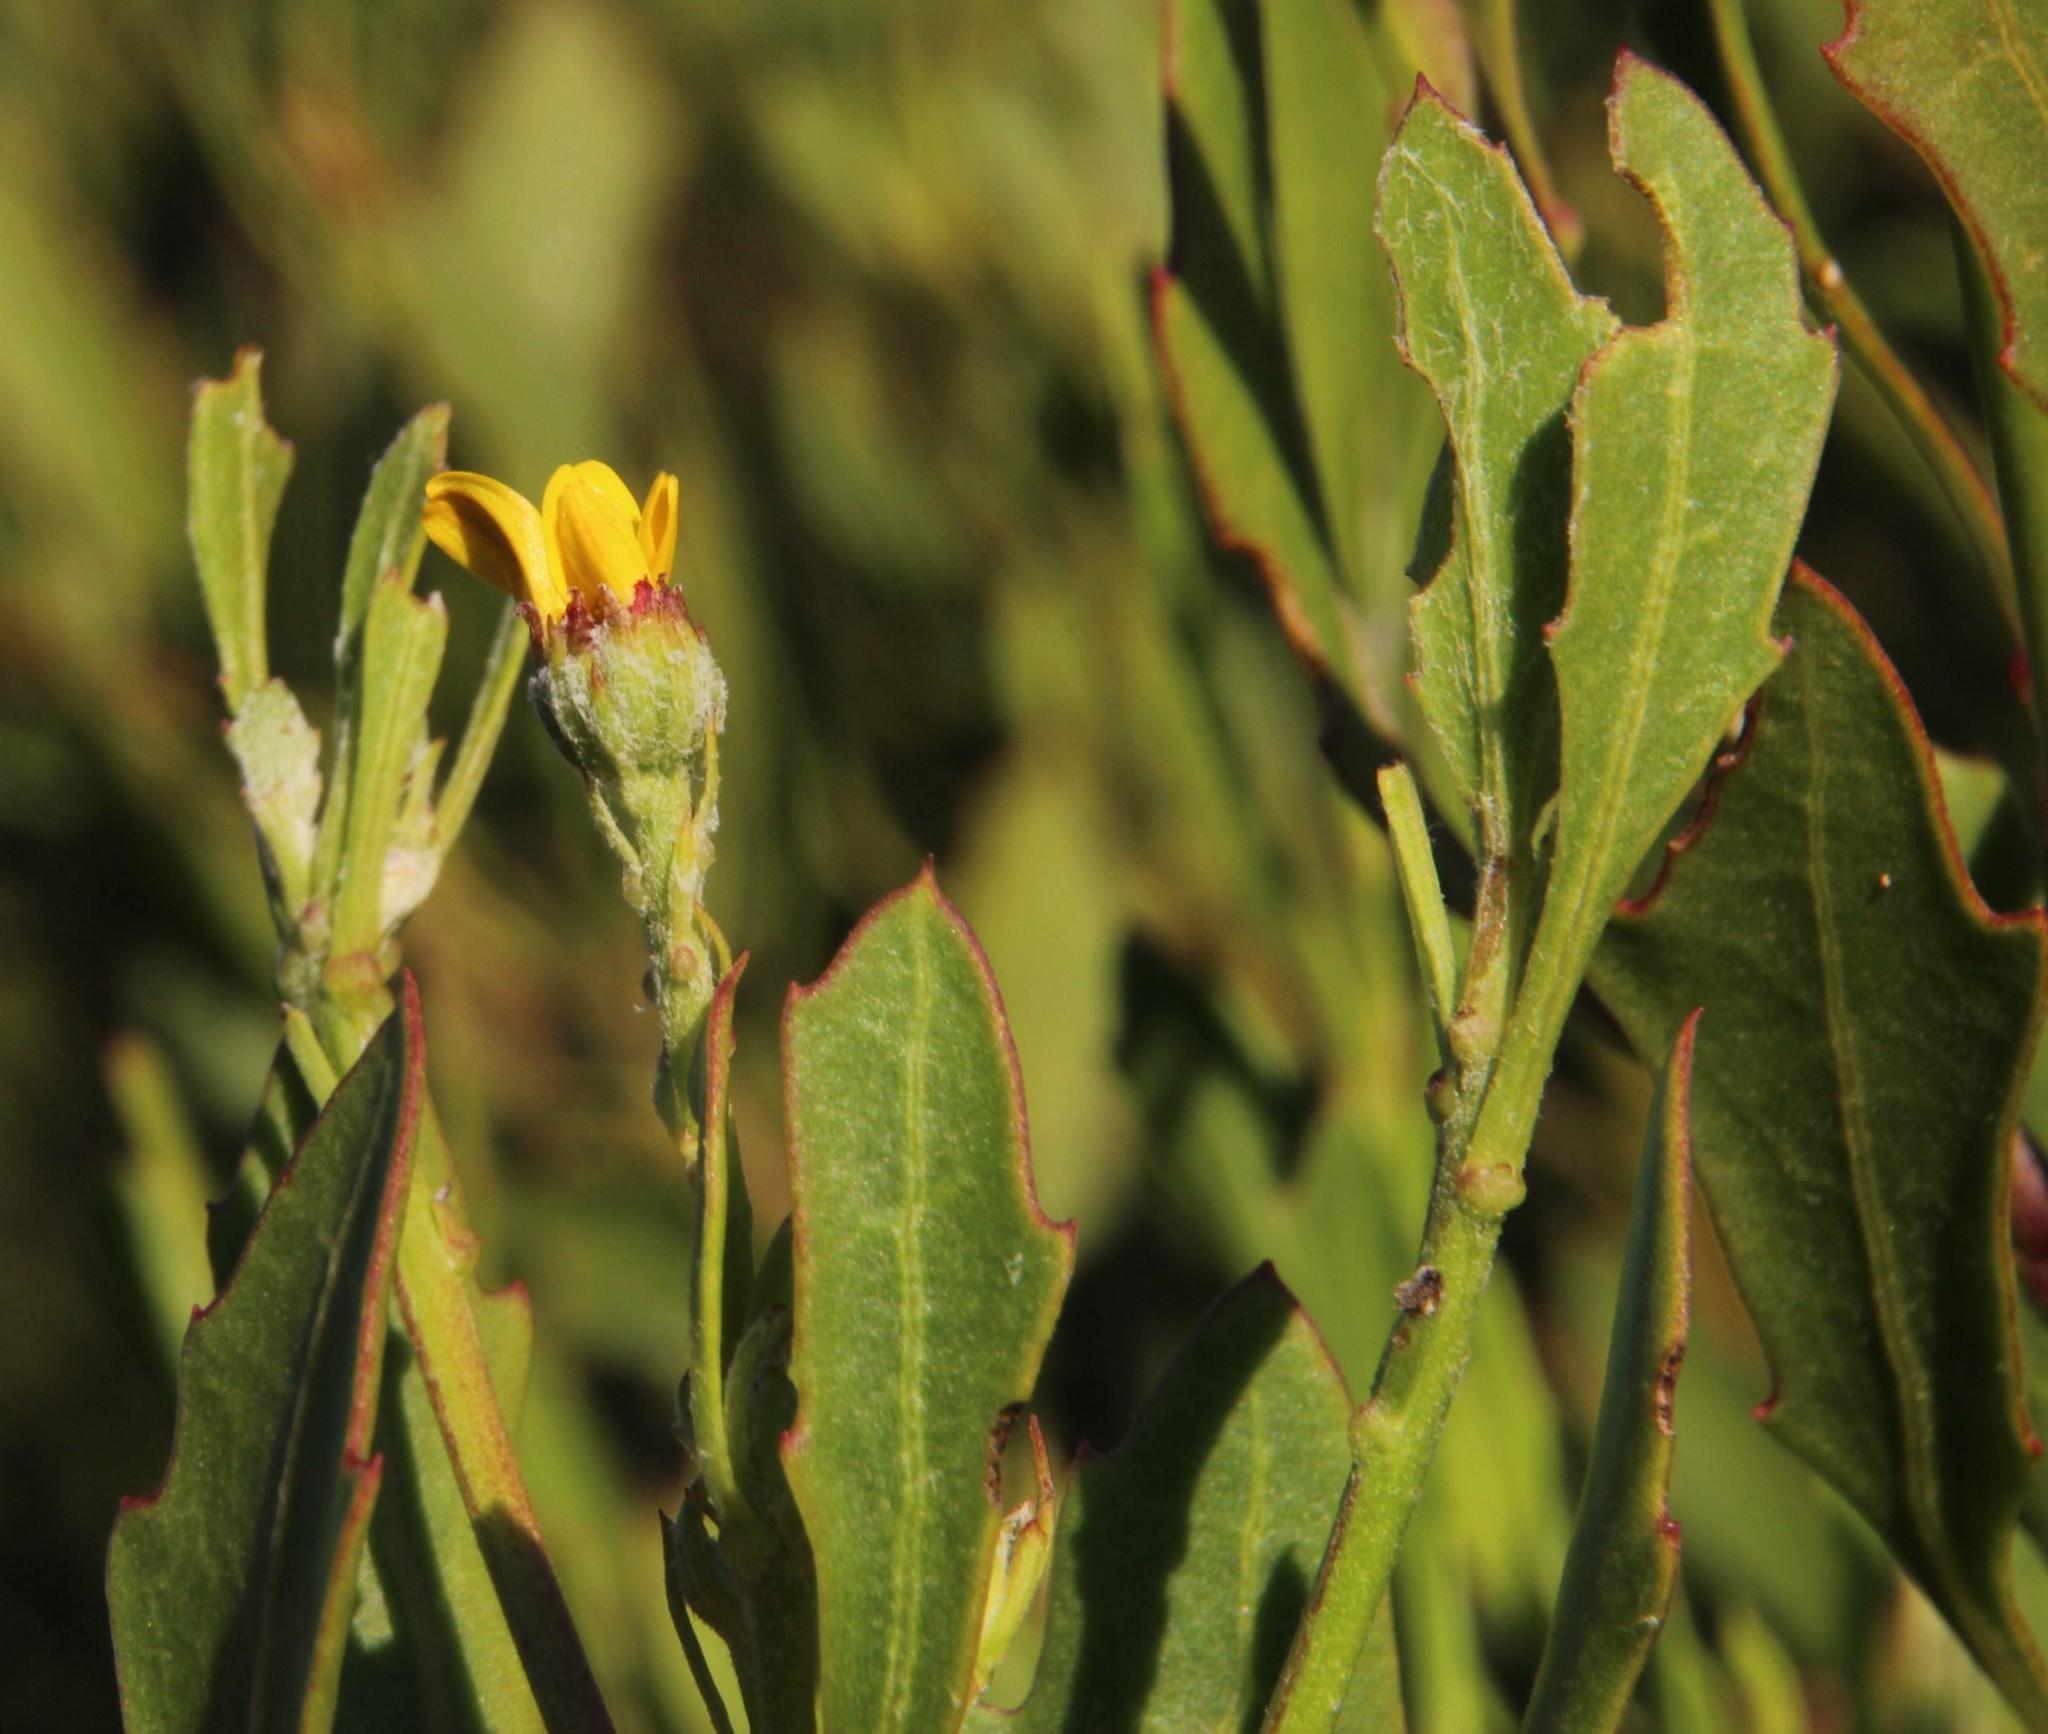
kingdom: Plantae
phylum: Tracheophyta
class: Magnoliopsida
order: Asterales
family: Asteraceae
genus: Osteospermum
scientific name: Osteospermum moniliferum
